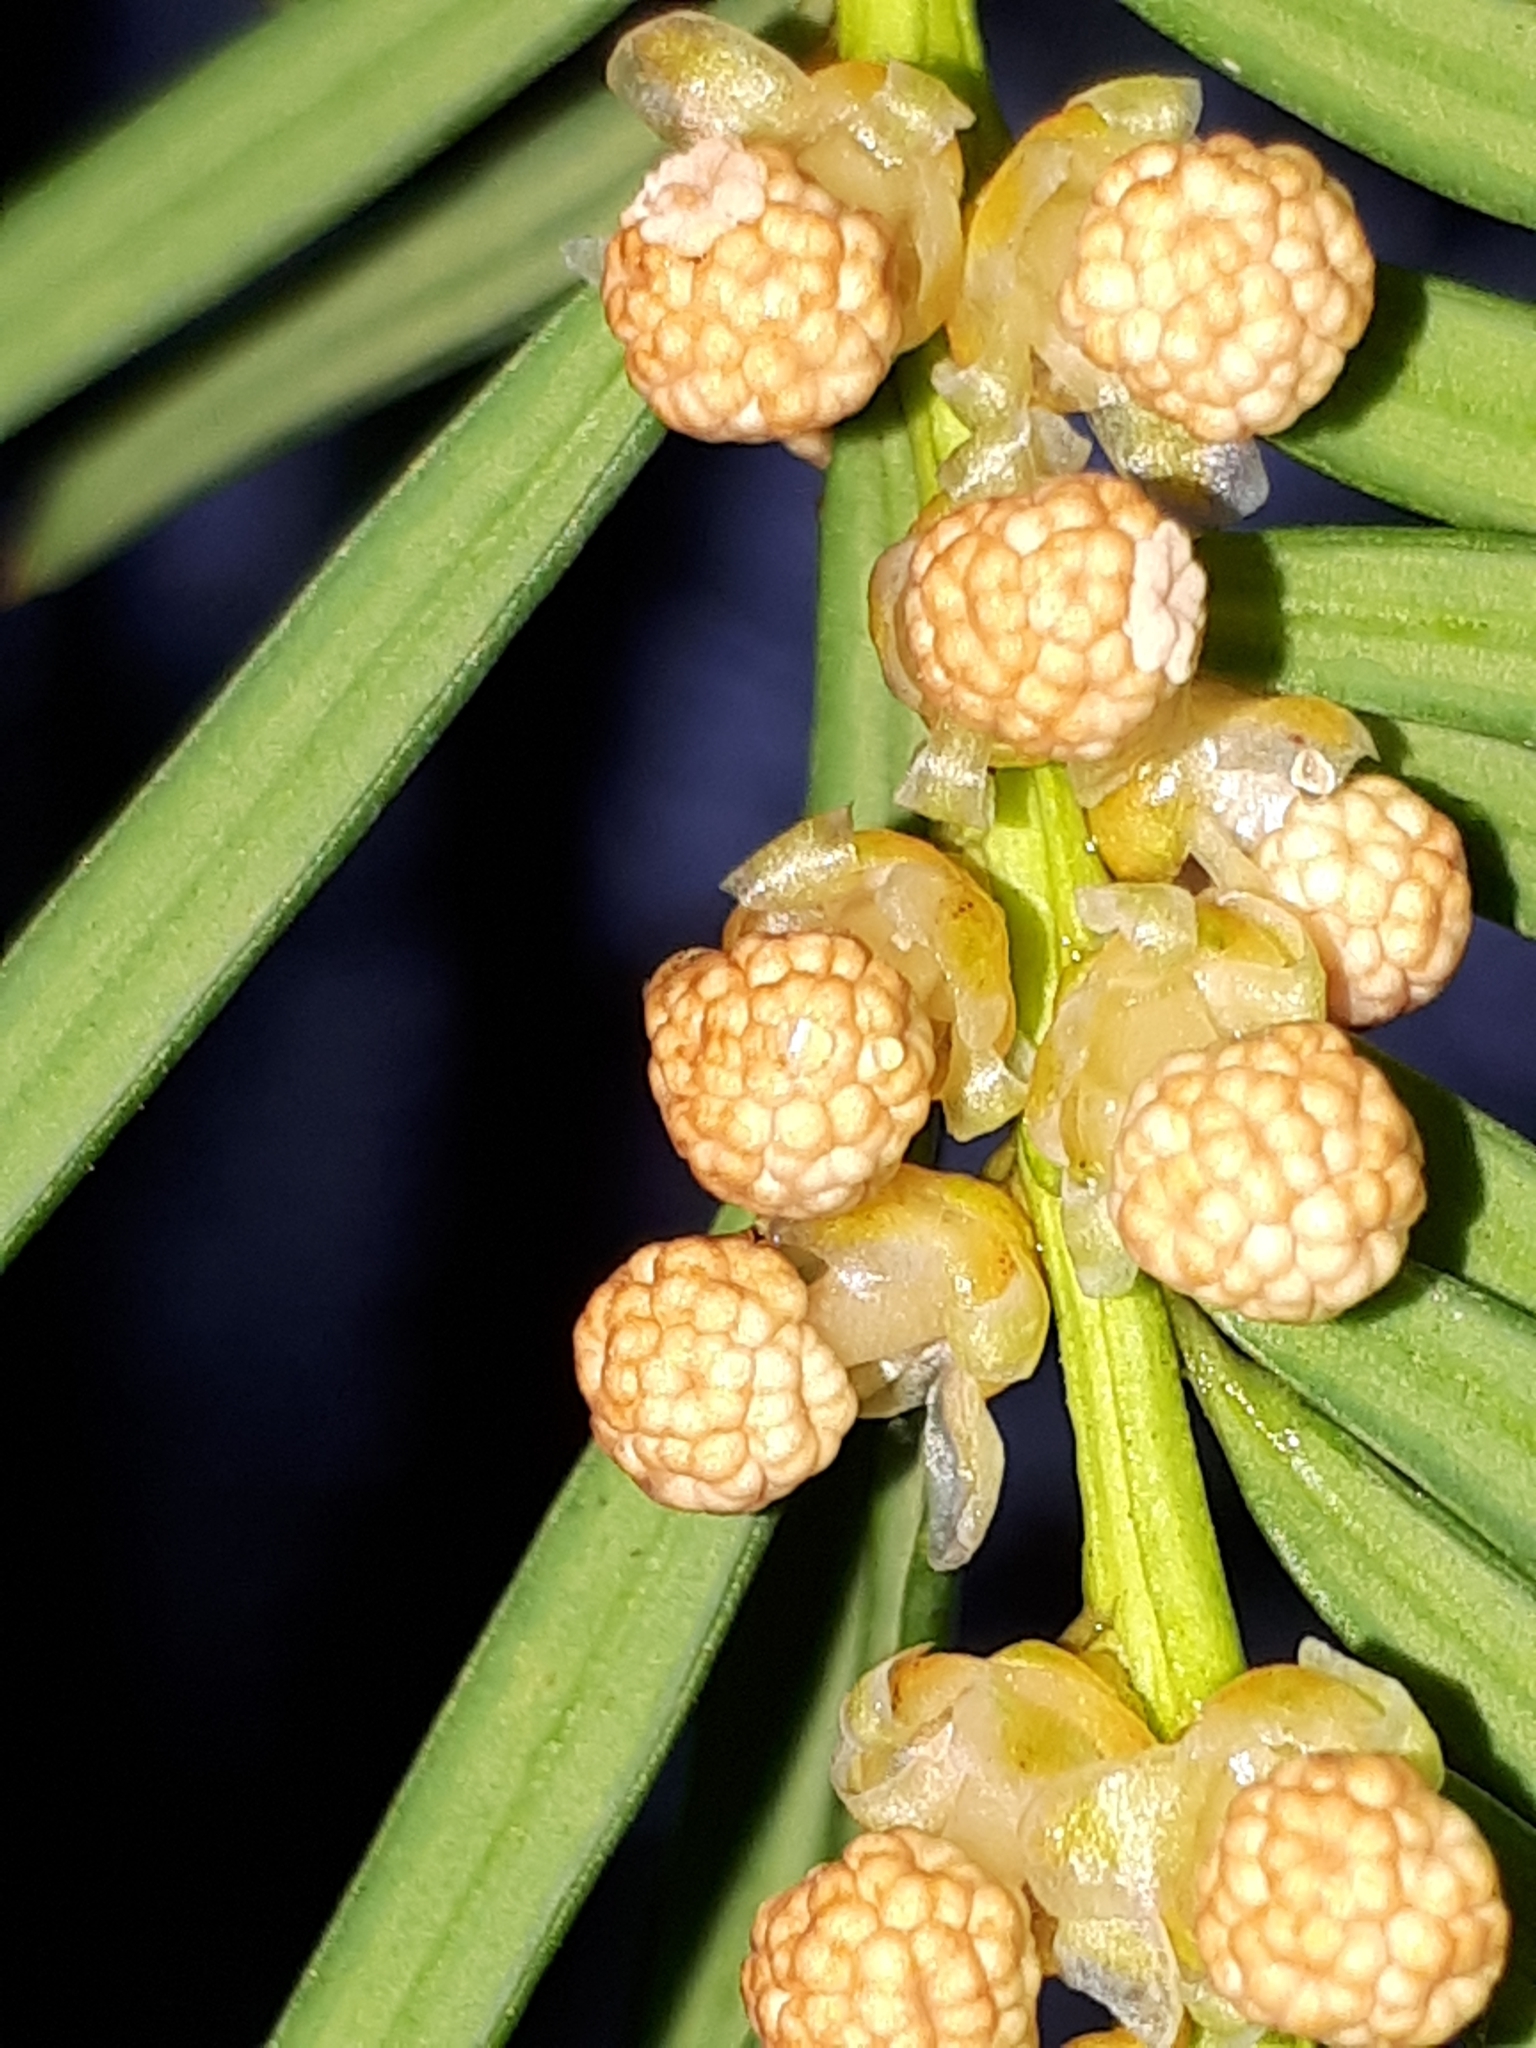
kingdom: Plantae
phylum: Tracheophyta
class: Pinopsida
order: Pinales
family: Taxaceae
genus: Taxus
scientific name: Taxus baccata
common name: Yew
